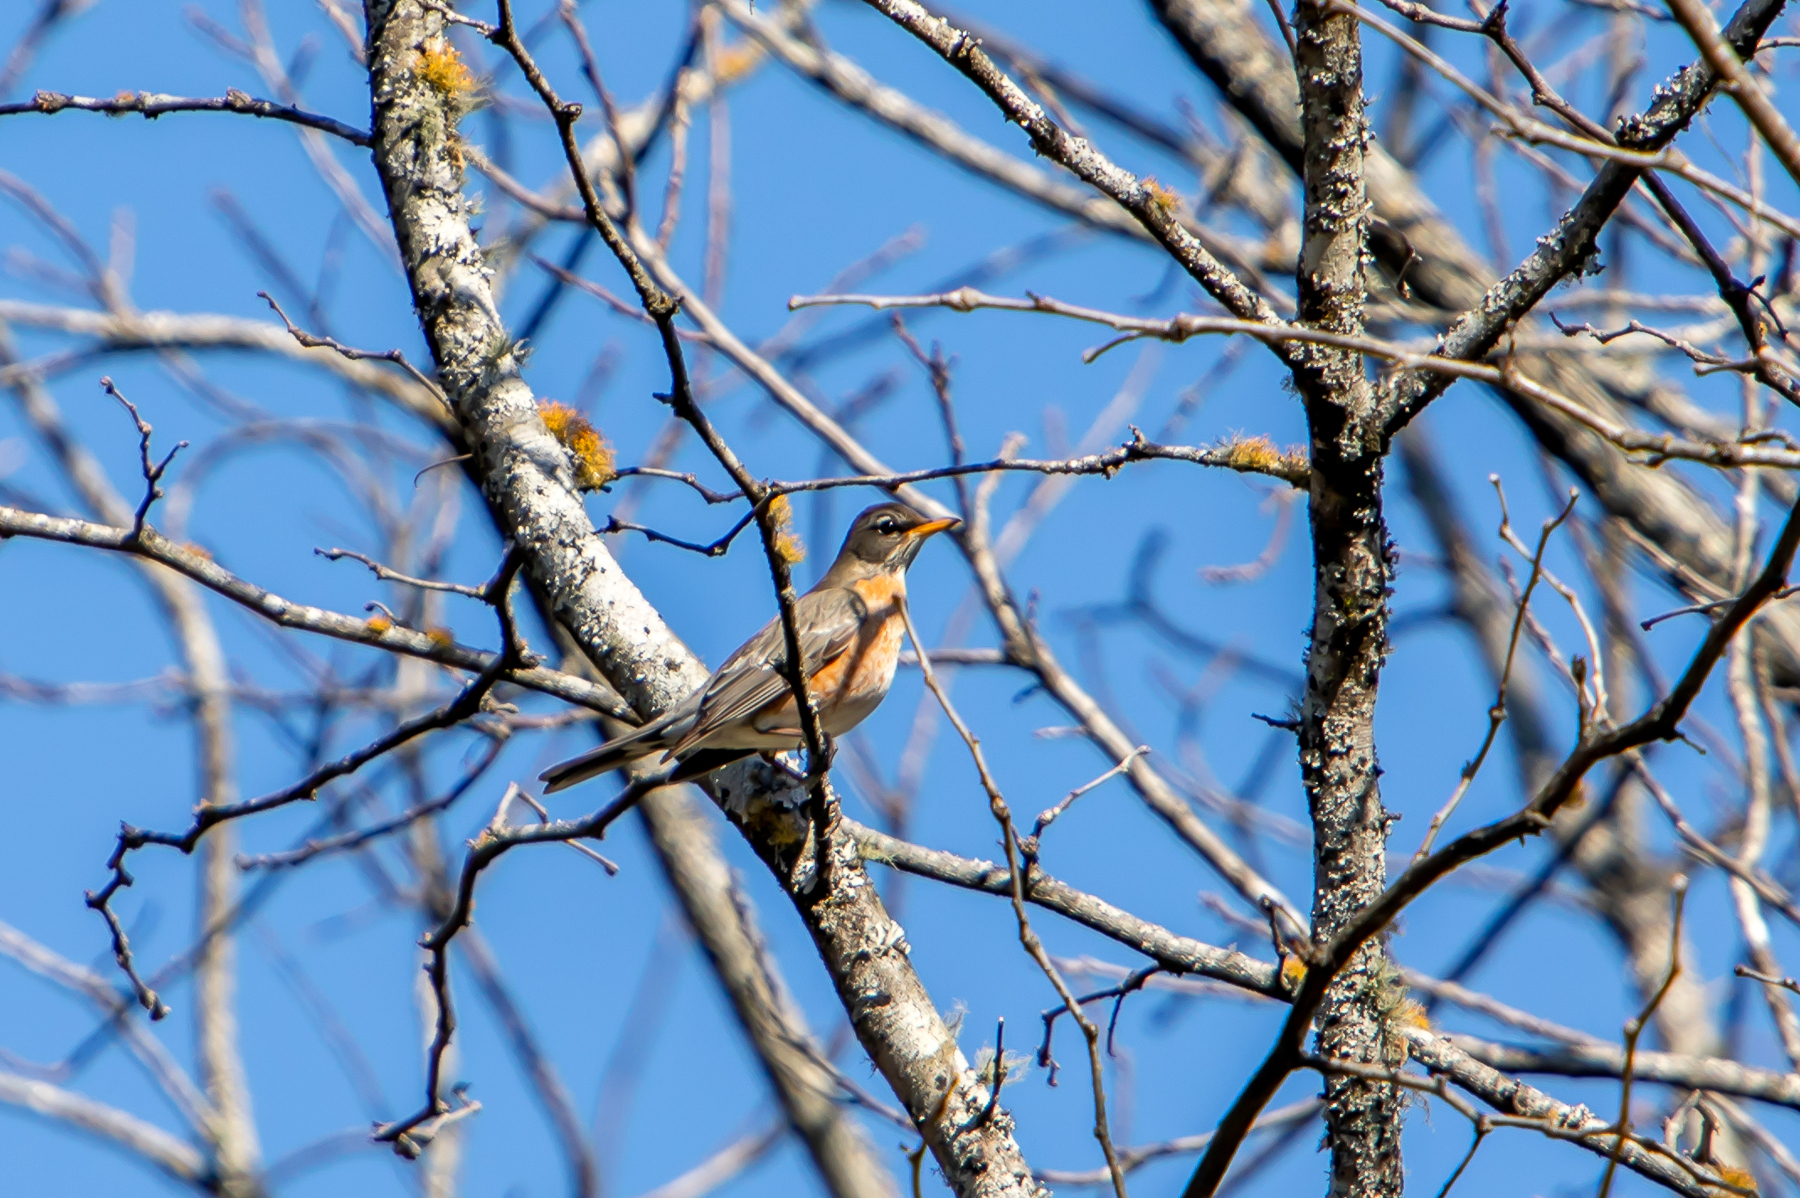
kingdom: Animalia
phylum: Chordata
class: Aves
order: Passeriformes
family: Turdidae
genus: Turdus
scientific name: Turdus migratorius
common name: American robin
